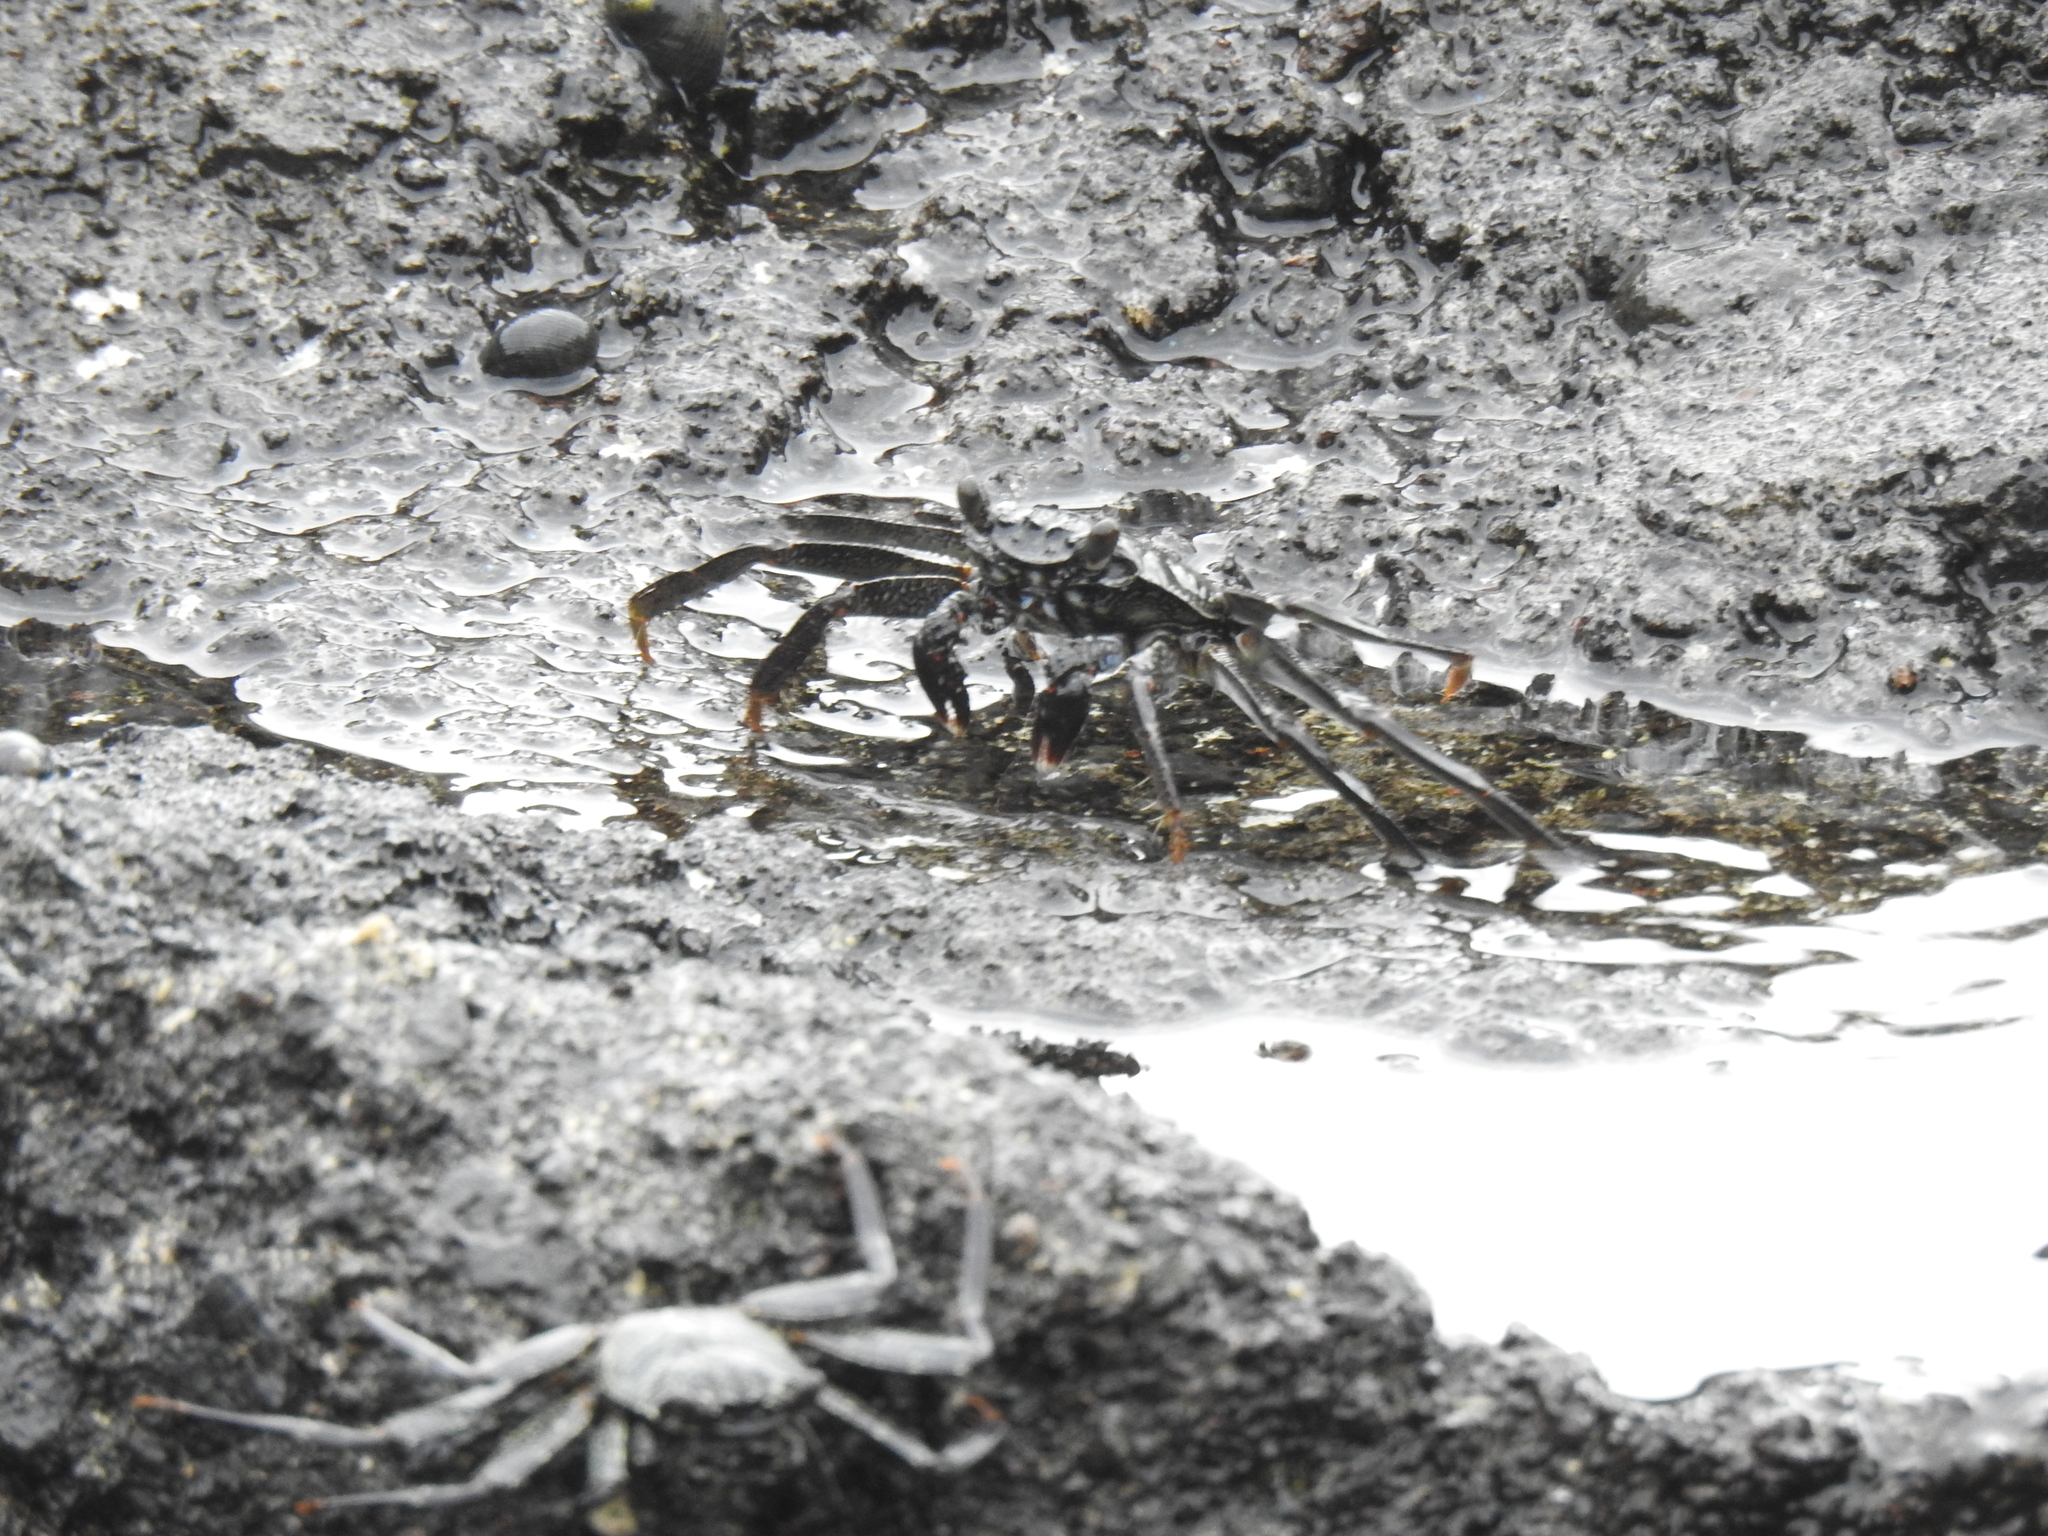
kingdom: Animalia
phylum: Arthropoda
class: Malacostraca
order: Decapoda
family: Grapsidae
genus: Grapsus
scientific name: Grapsus tenuicrustatus
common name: Natal lightfoot crab
